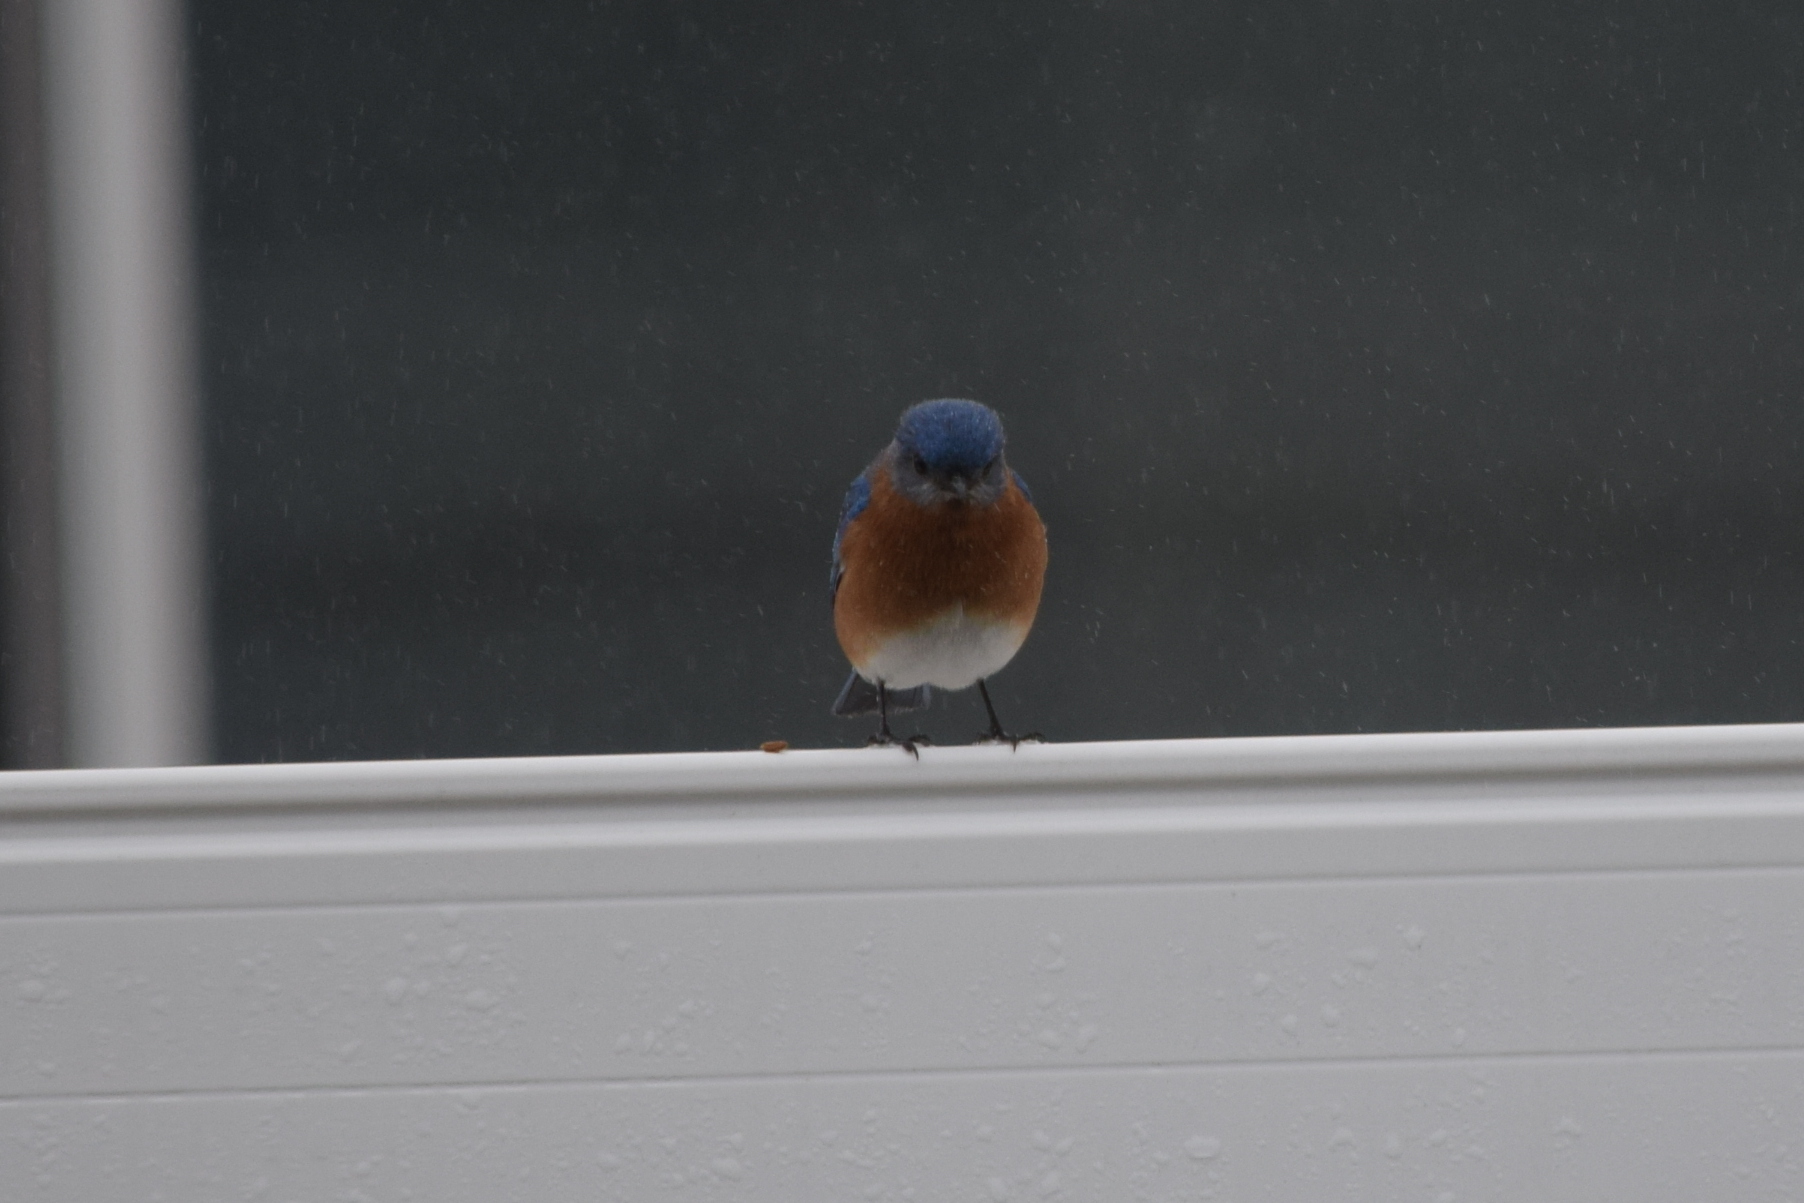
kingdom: Animalia
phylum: Chordata
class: Aves
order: Passeriformes
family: Turdidae
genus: Sialia
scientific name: Sialia sialis
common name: Eastern bluebird
